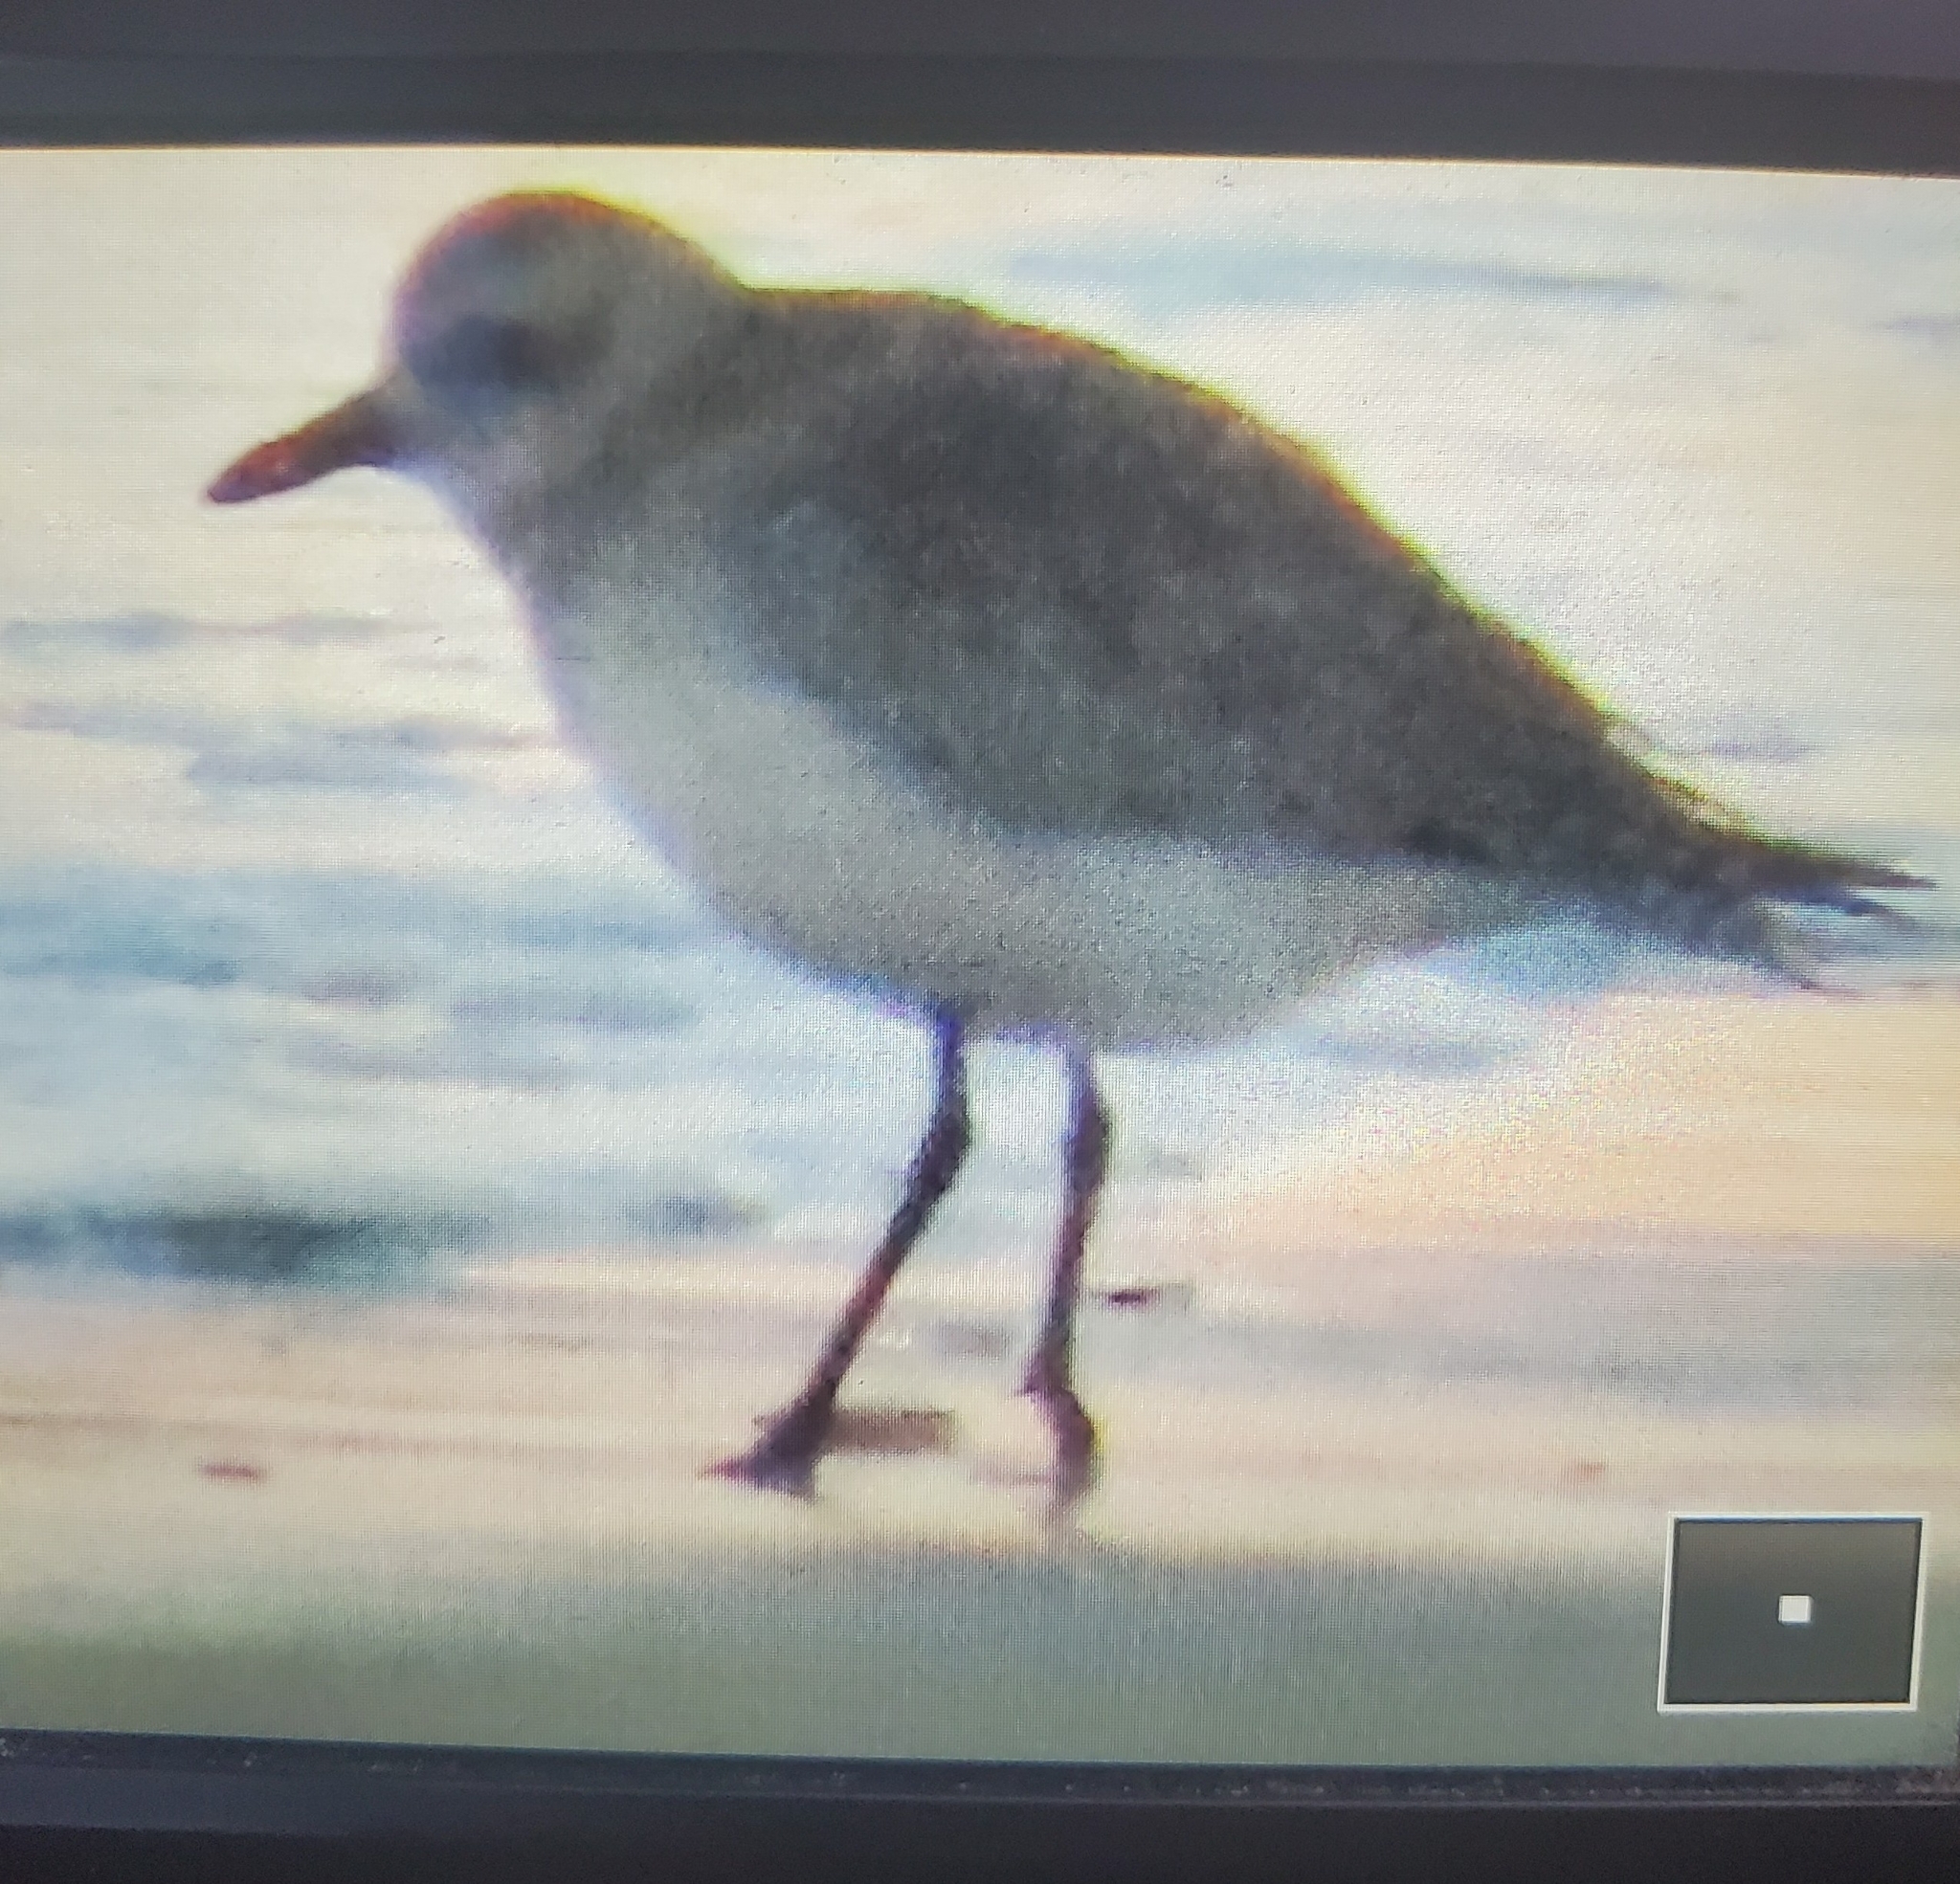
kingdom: Animalia
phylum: Chordata
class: Aves
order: Charadriiformes
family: Charadriidae
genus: Pluvialis
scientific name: Pluvialis squatarola
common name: Grey plover
